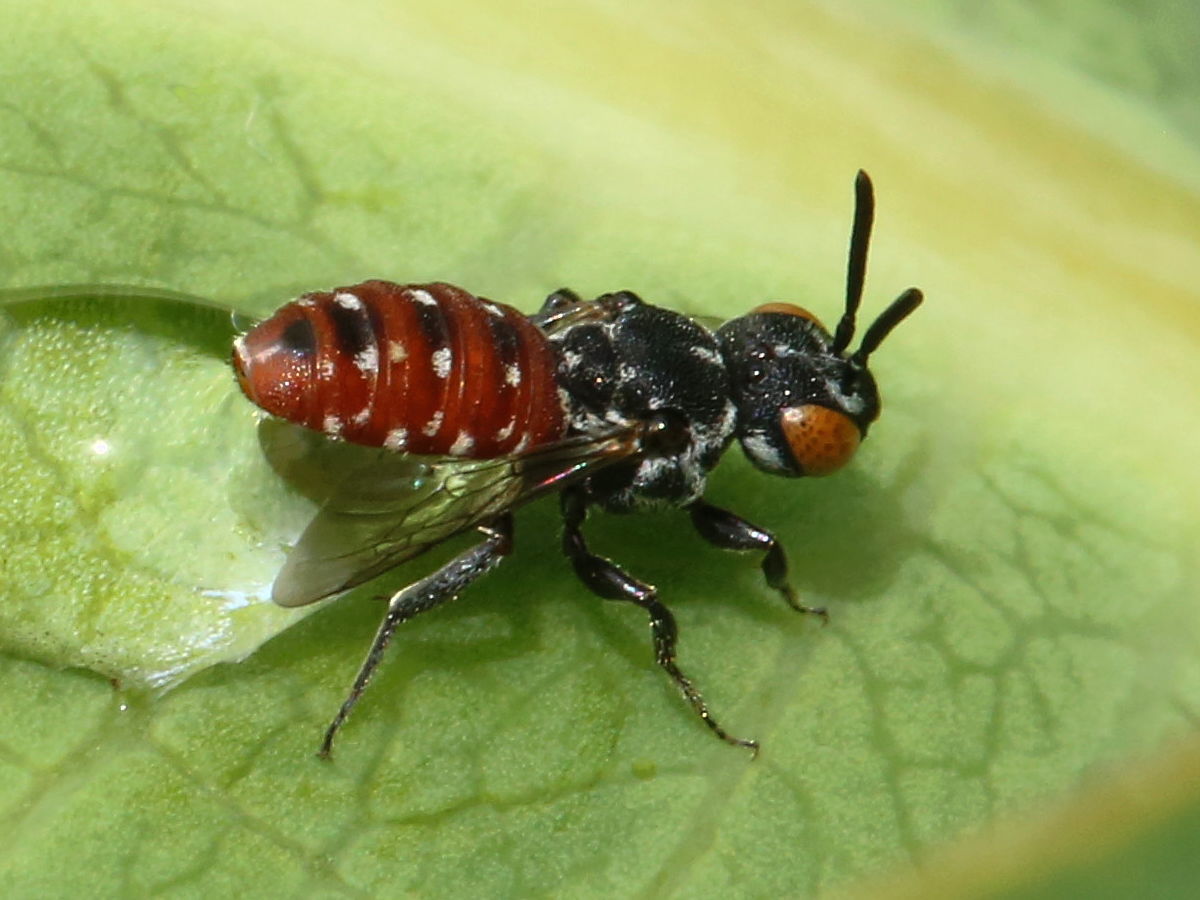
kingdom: Animalia
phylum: Arthropoda
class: Insecta
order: Hymenoptera
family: Apidae
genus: Holcopasites
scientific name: Holcopasites calliopsidis
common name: Calliopsis cuckoo nomad bee
